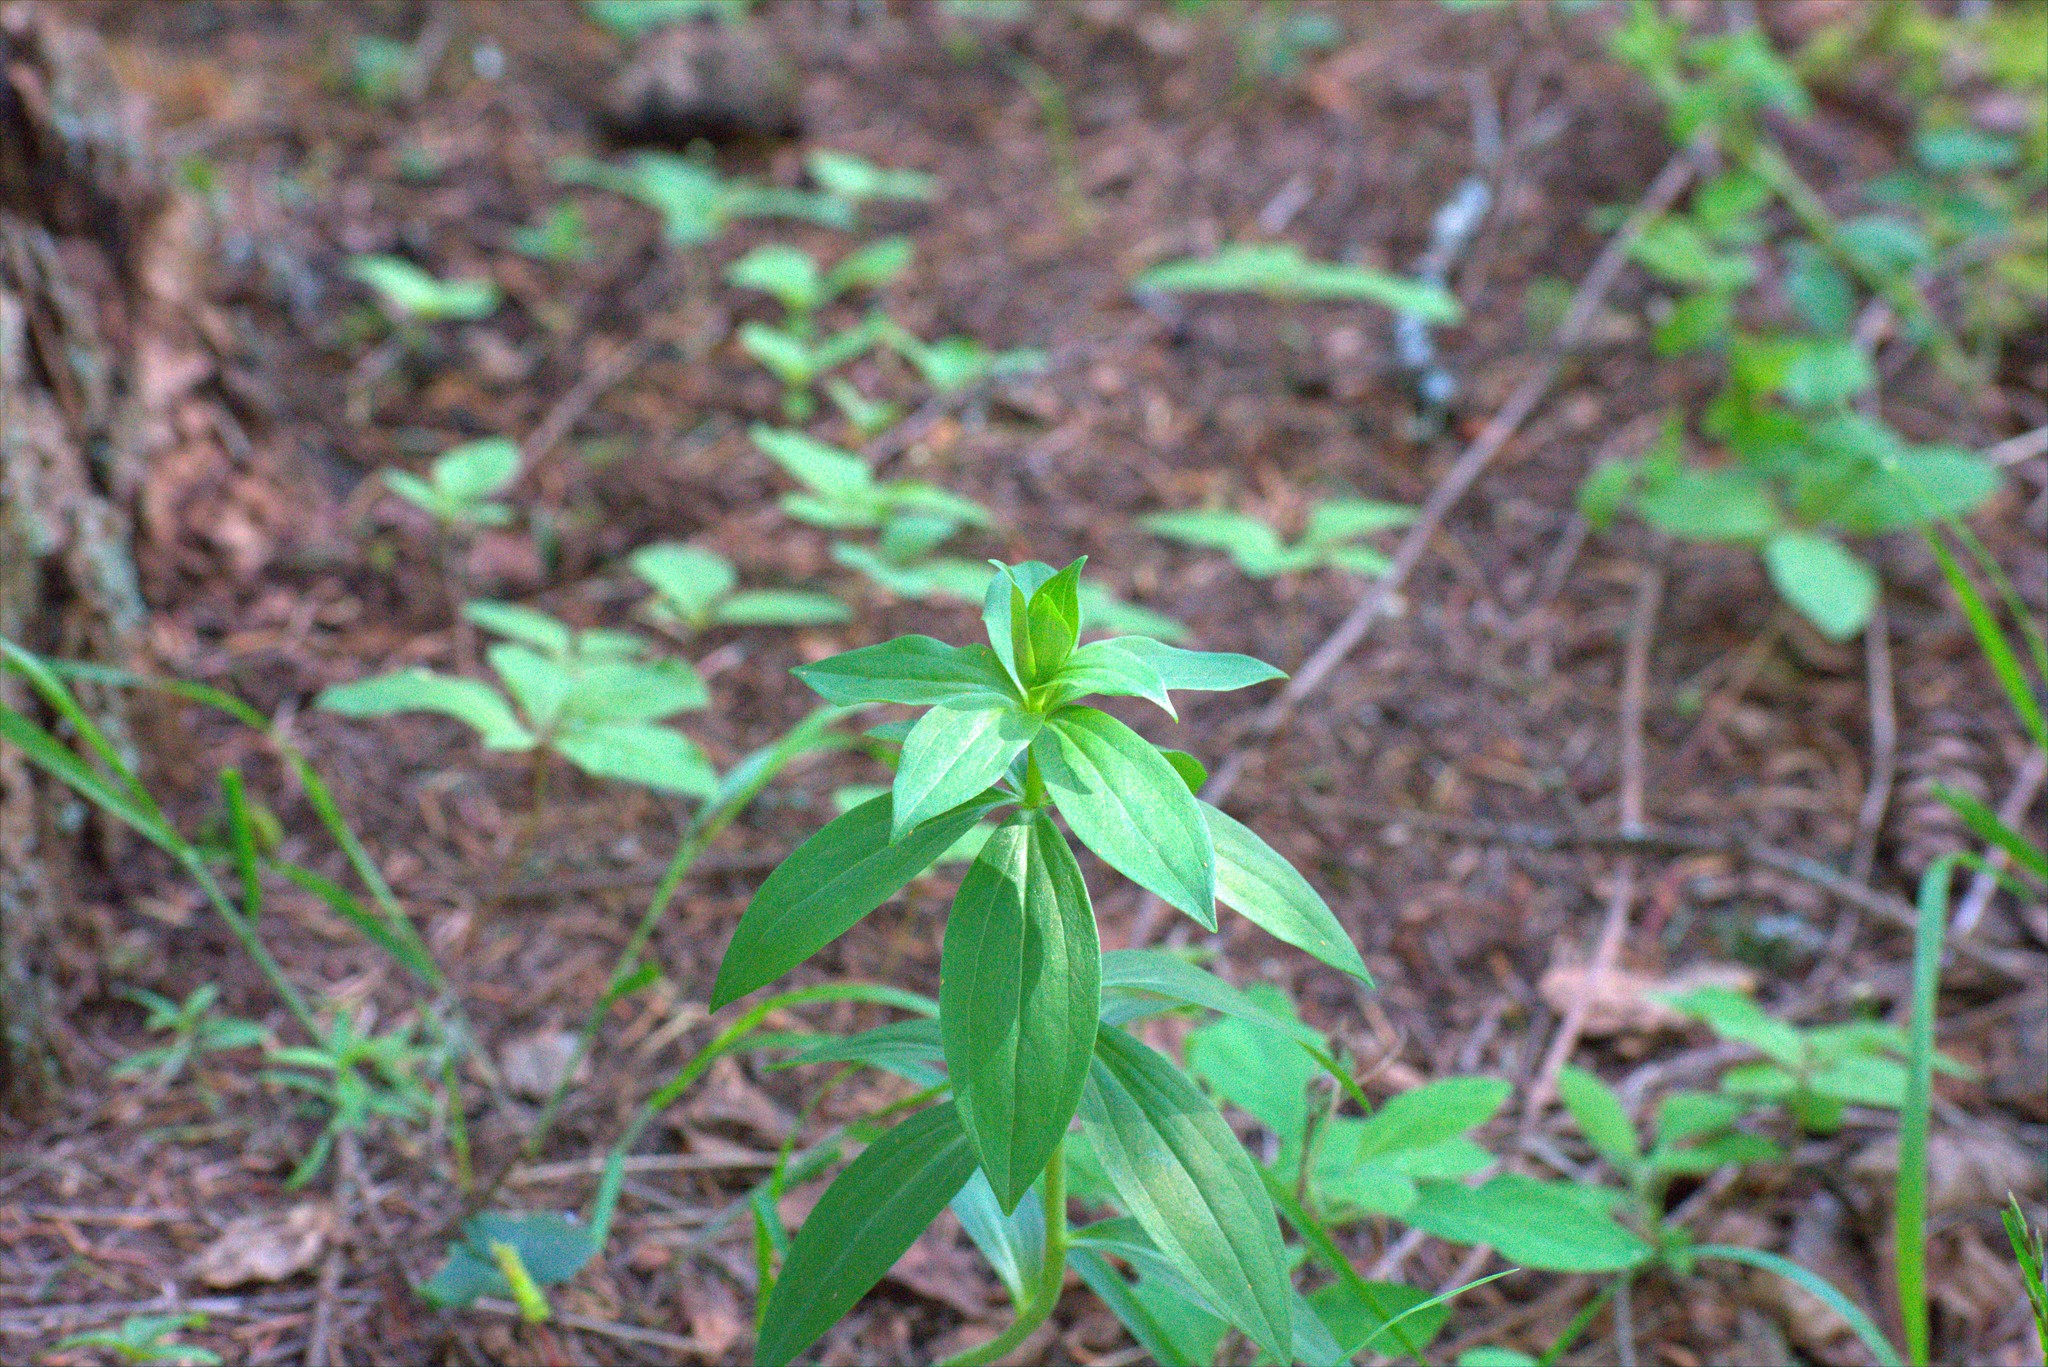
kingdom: Plantae
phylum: Tracheophyta
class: Magnoliopsida
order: Caryophyllales
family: Caryophyllaceae
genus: Saponaria
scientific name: Saponaria officinalis
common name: Soapwort
